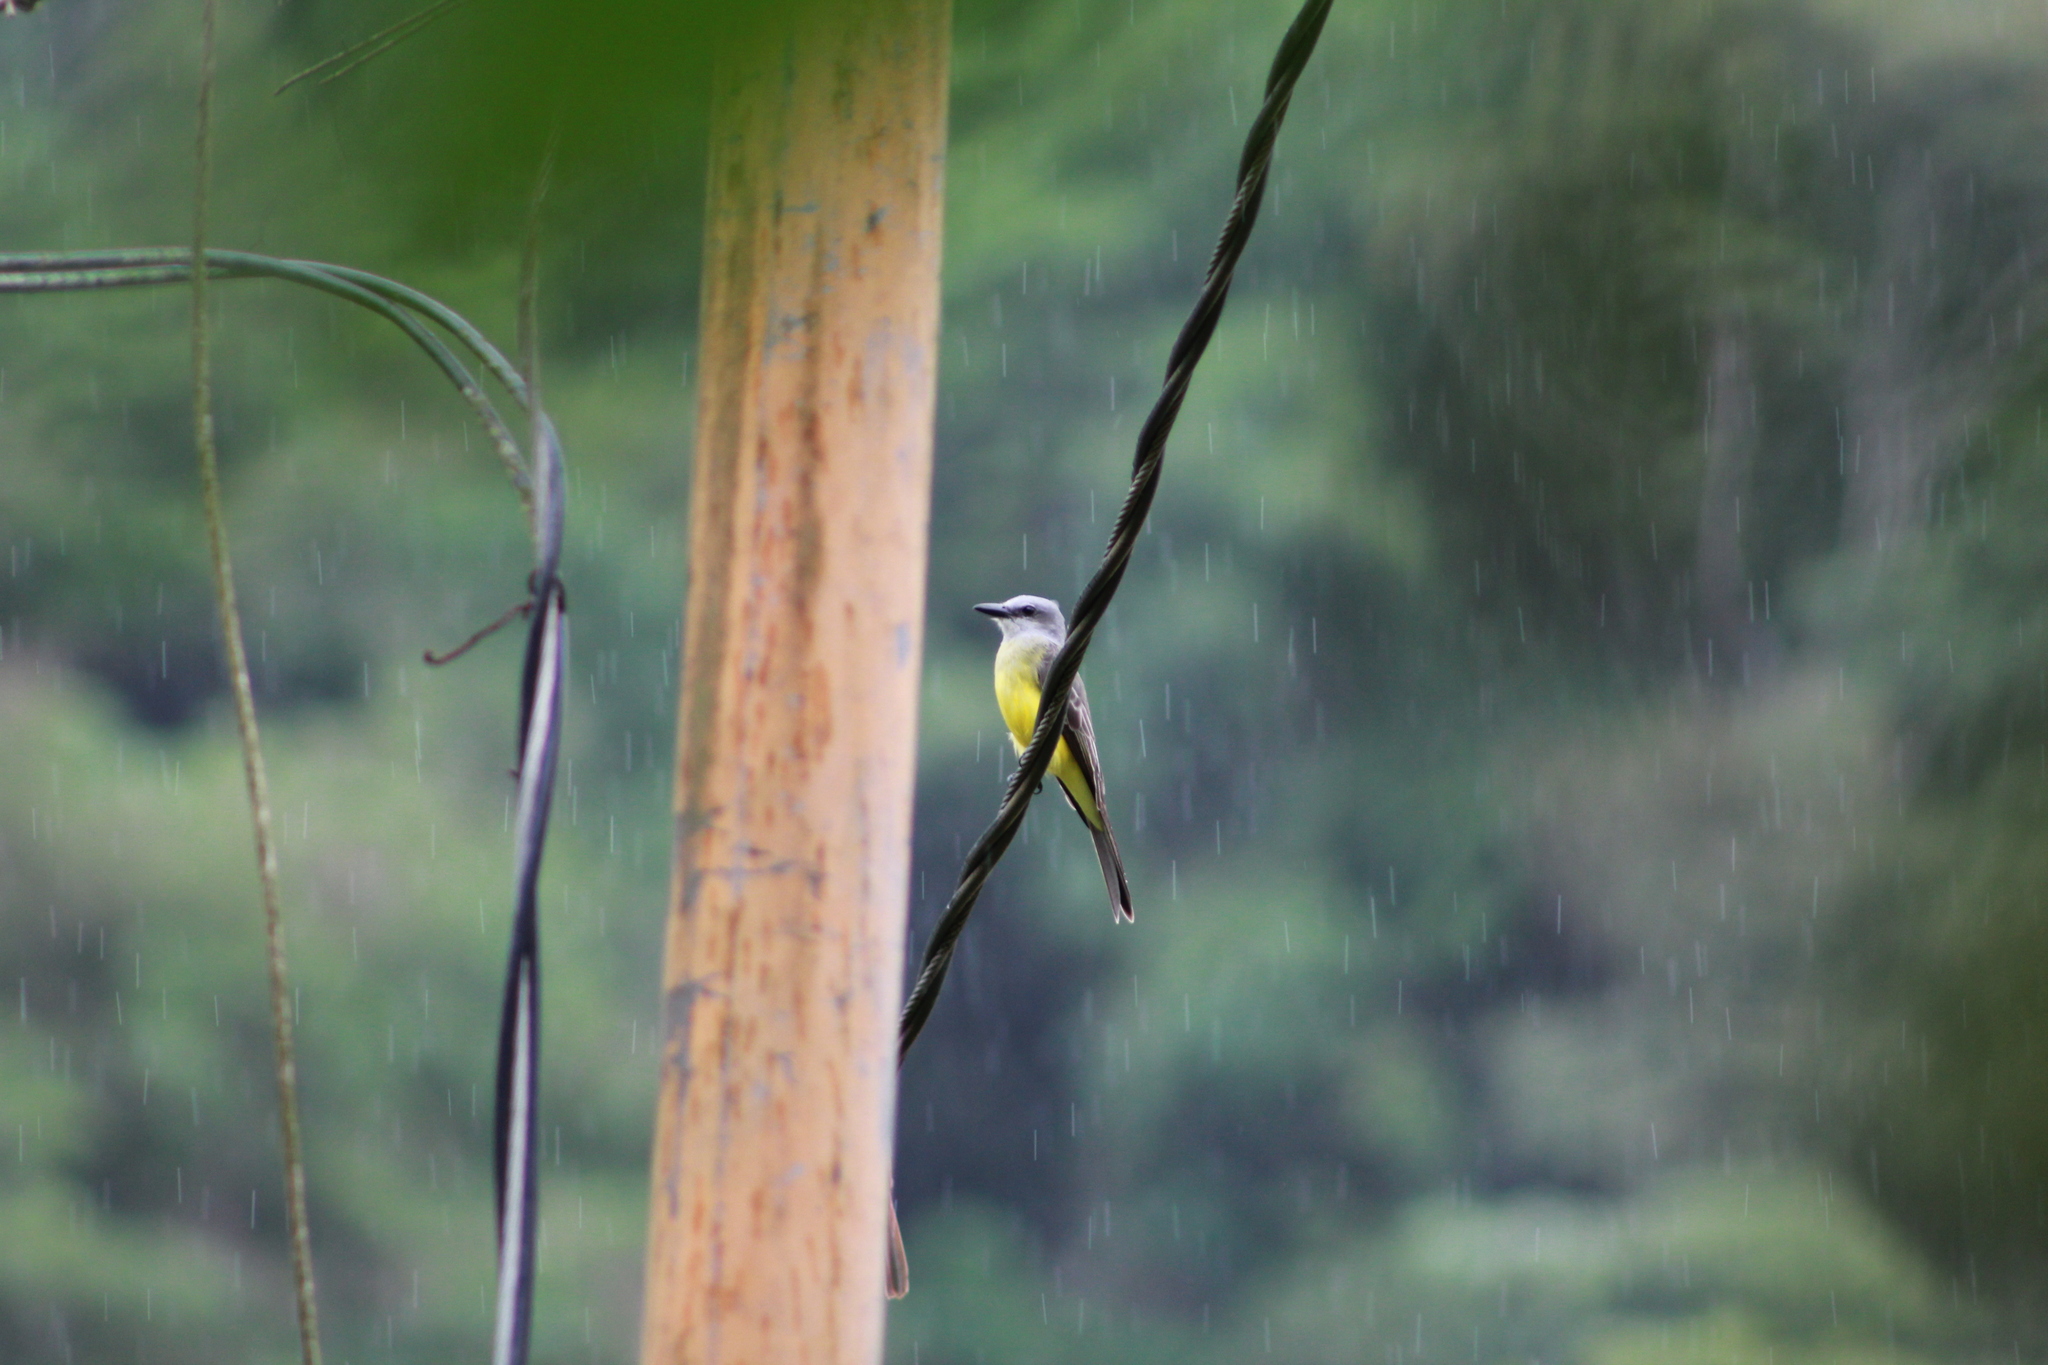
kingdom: Animalia
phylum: Chordata
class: Aves
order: Passeriformes
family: Tyrannidae
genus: Tyrannus
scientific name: Tyrannus melancholicus
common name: Tropical kingbird
